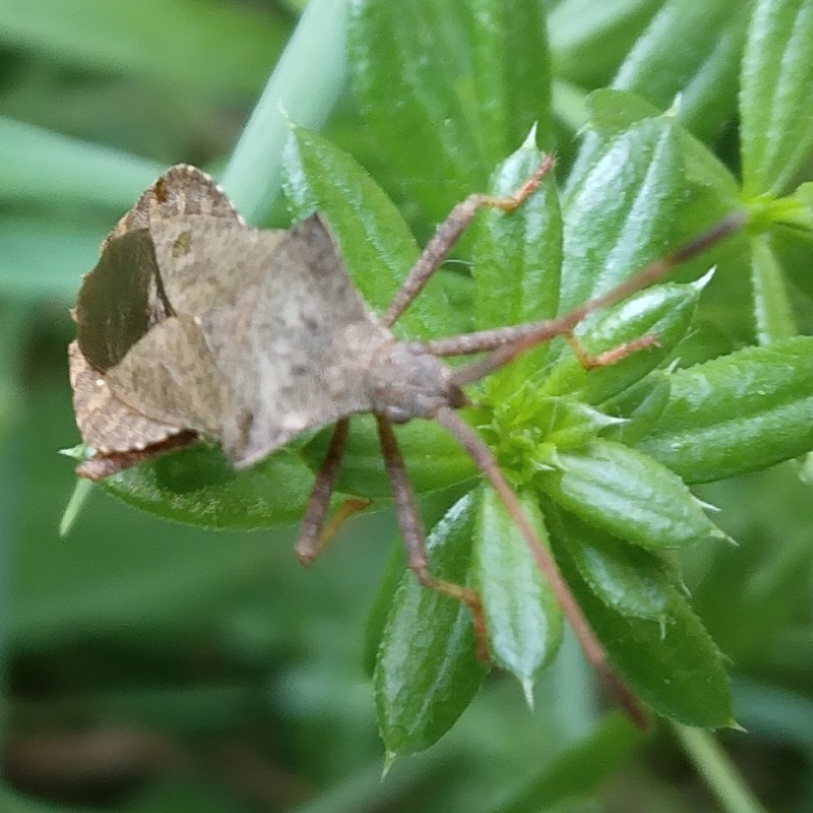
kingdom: Animalia
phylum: Arthropoda
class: Insecta
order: Hemiptera
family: Coreidae
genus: Coreus
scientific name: Coreus marginatus
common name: Dock bug
